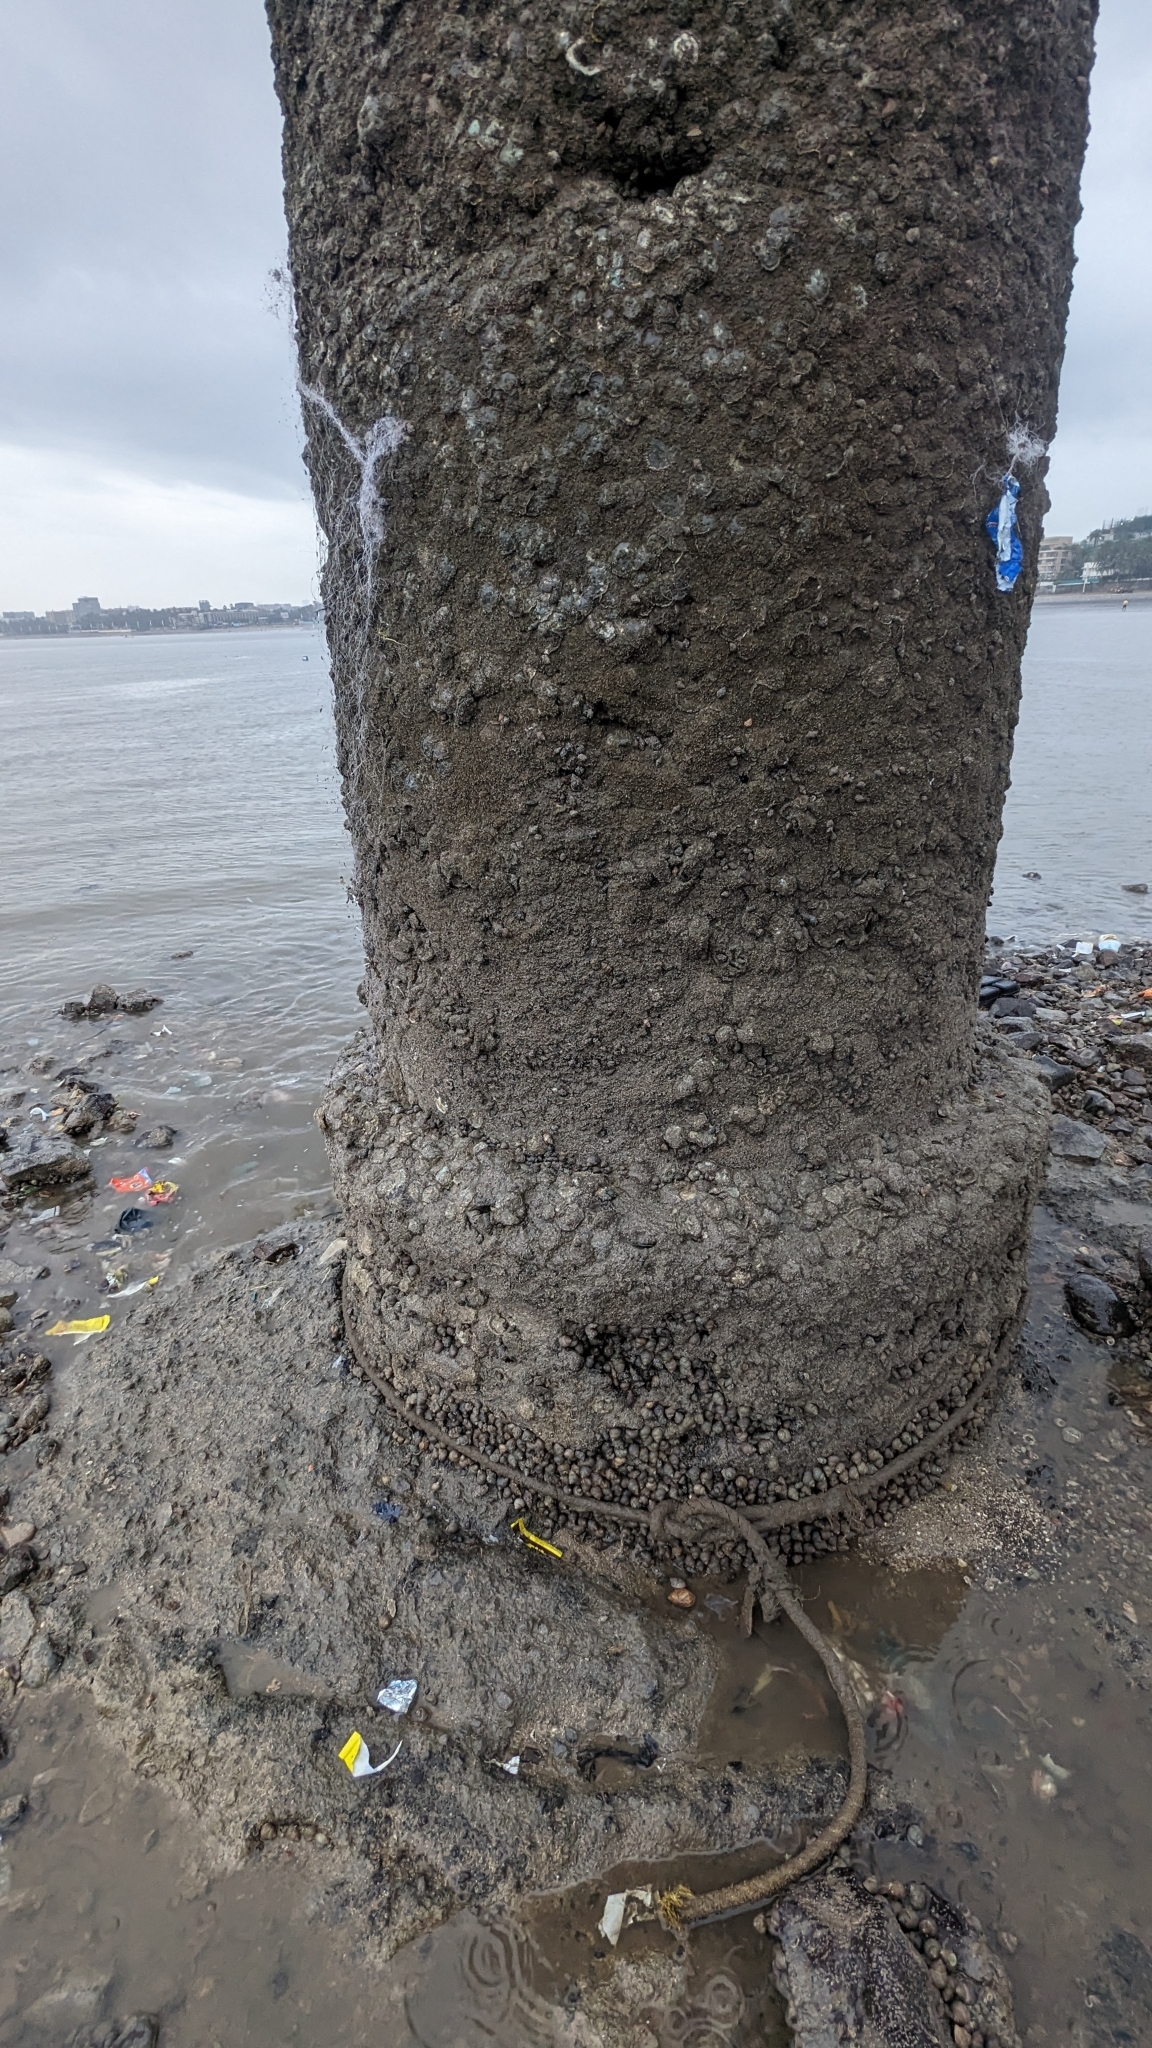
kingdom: Animalia
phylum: Mollusca
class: Gastropoda
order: Seguenziida
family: Chilodontaidae
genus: Euchelus
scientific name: Euchelus asper
